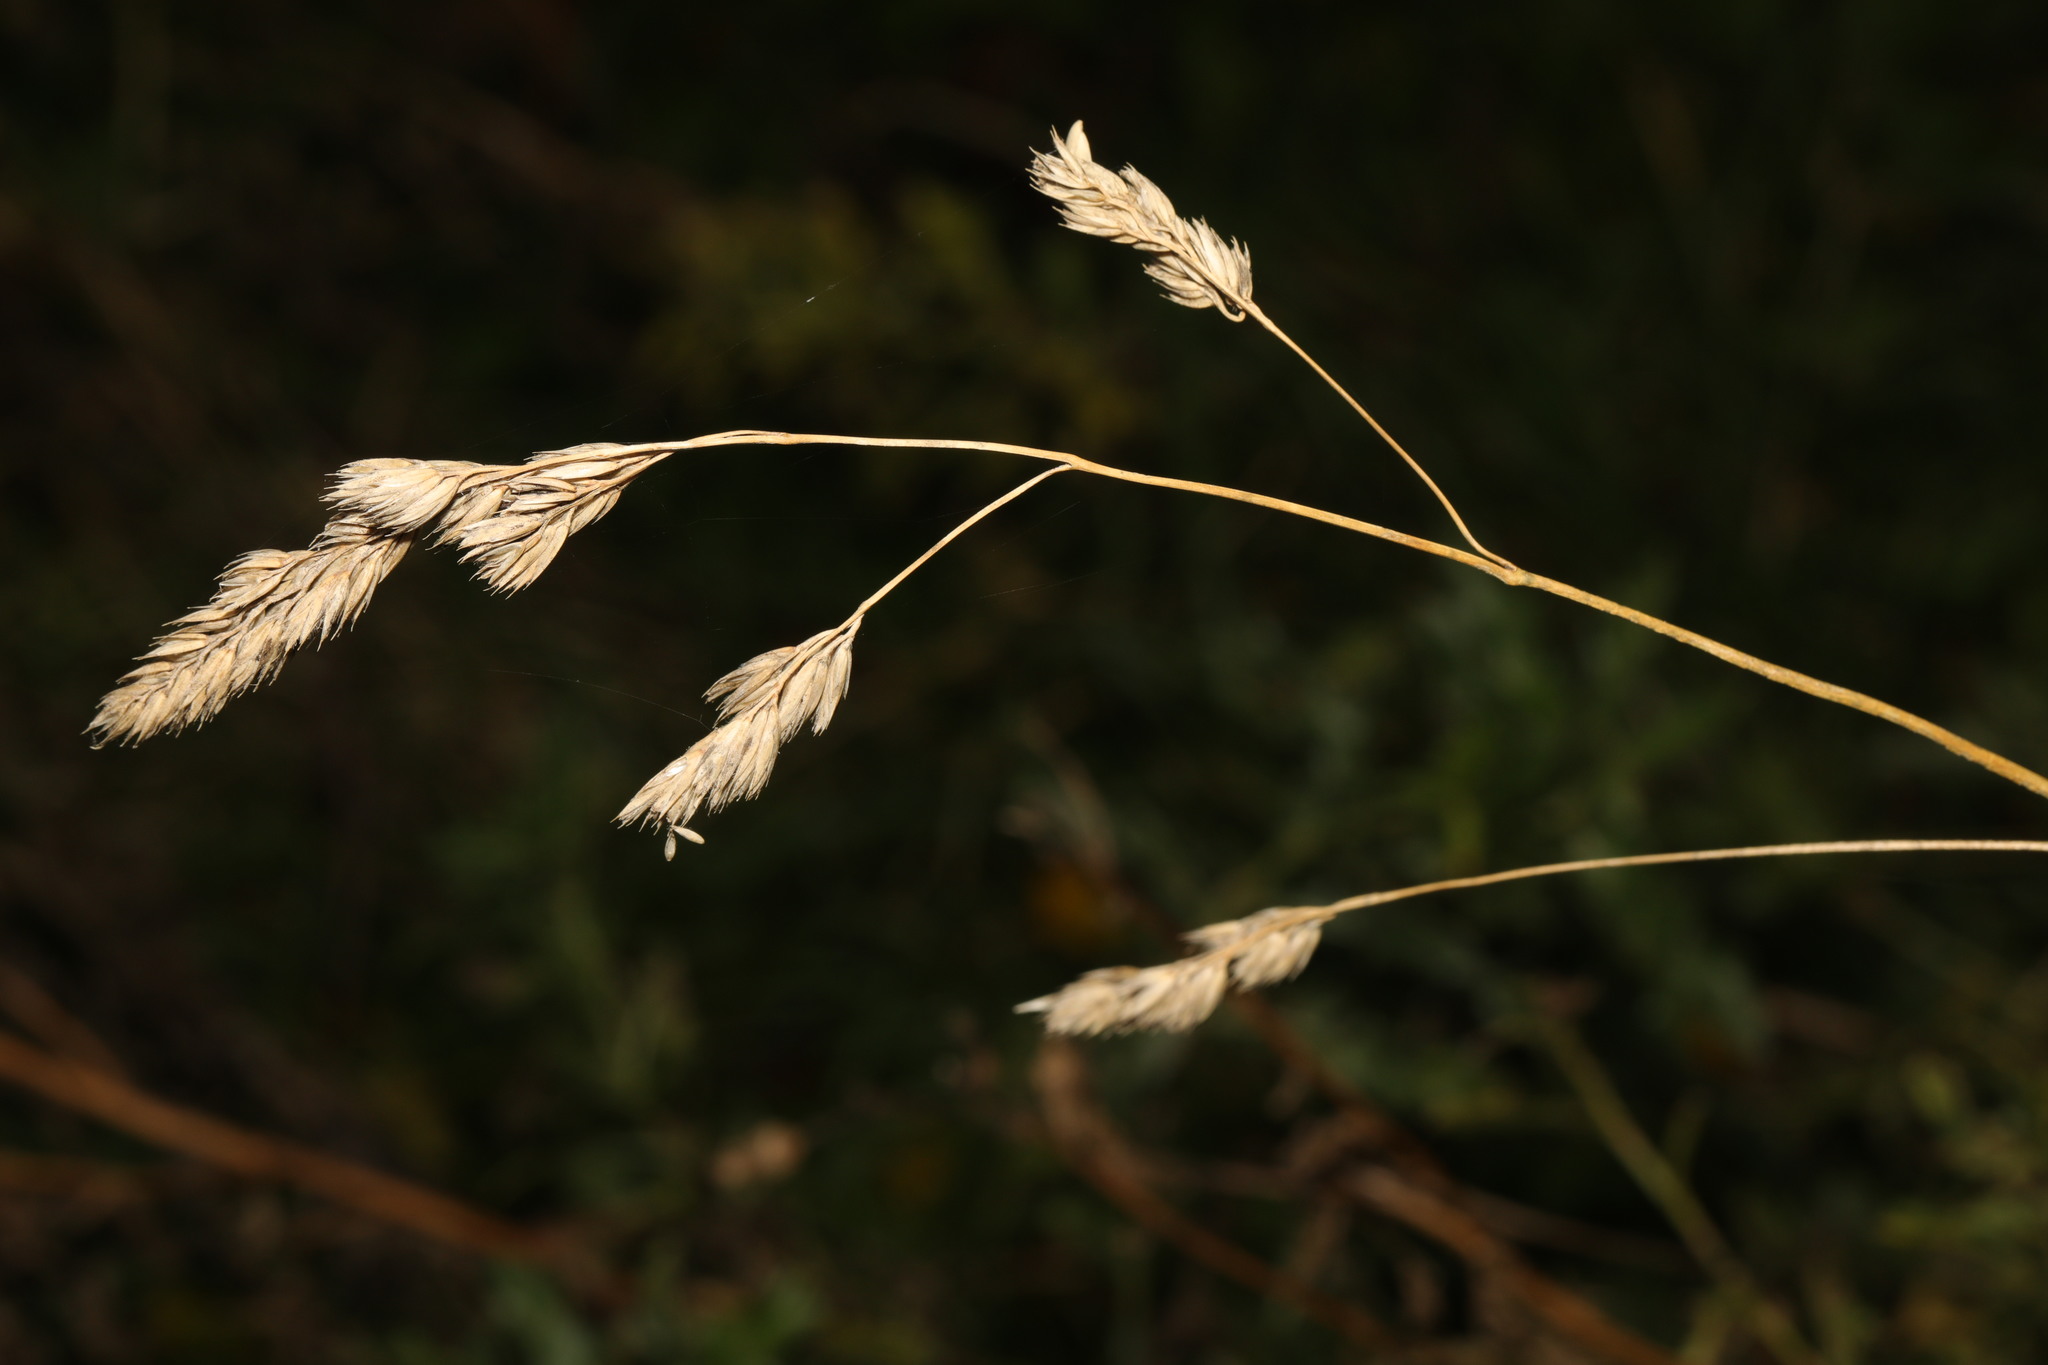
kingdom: Plantae
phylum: Tracheophyta
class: Liliopsida
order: Poales
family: Poaceae
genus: Dactylis
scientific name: Dactylis glomerata
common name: Orchardgrass
